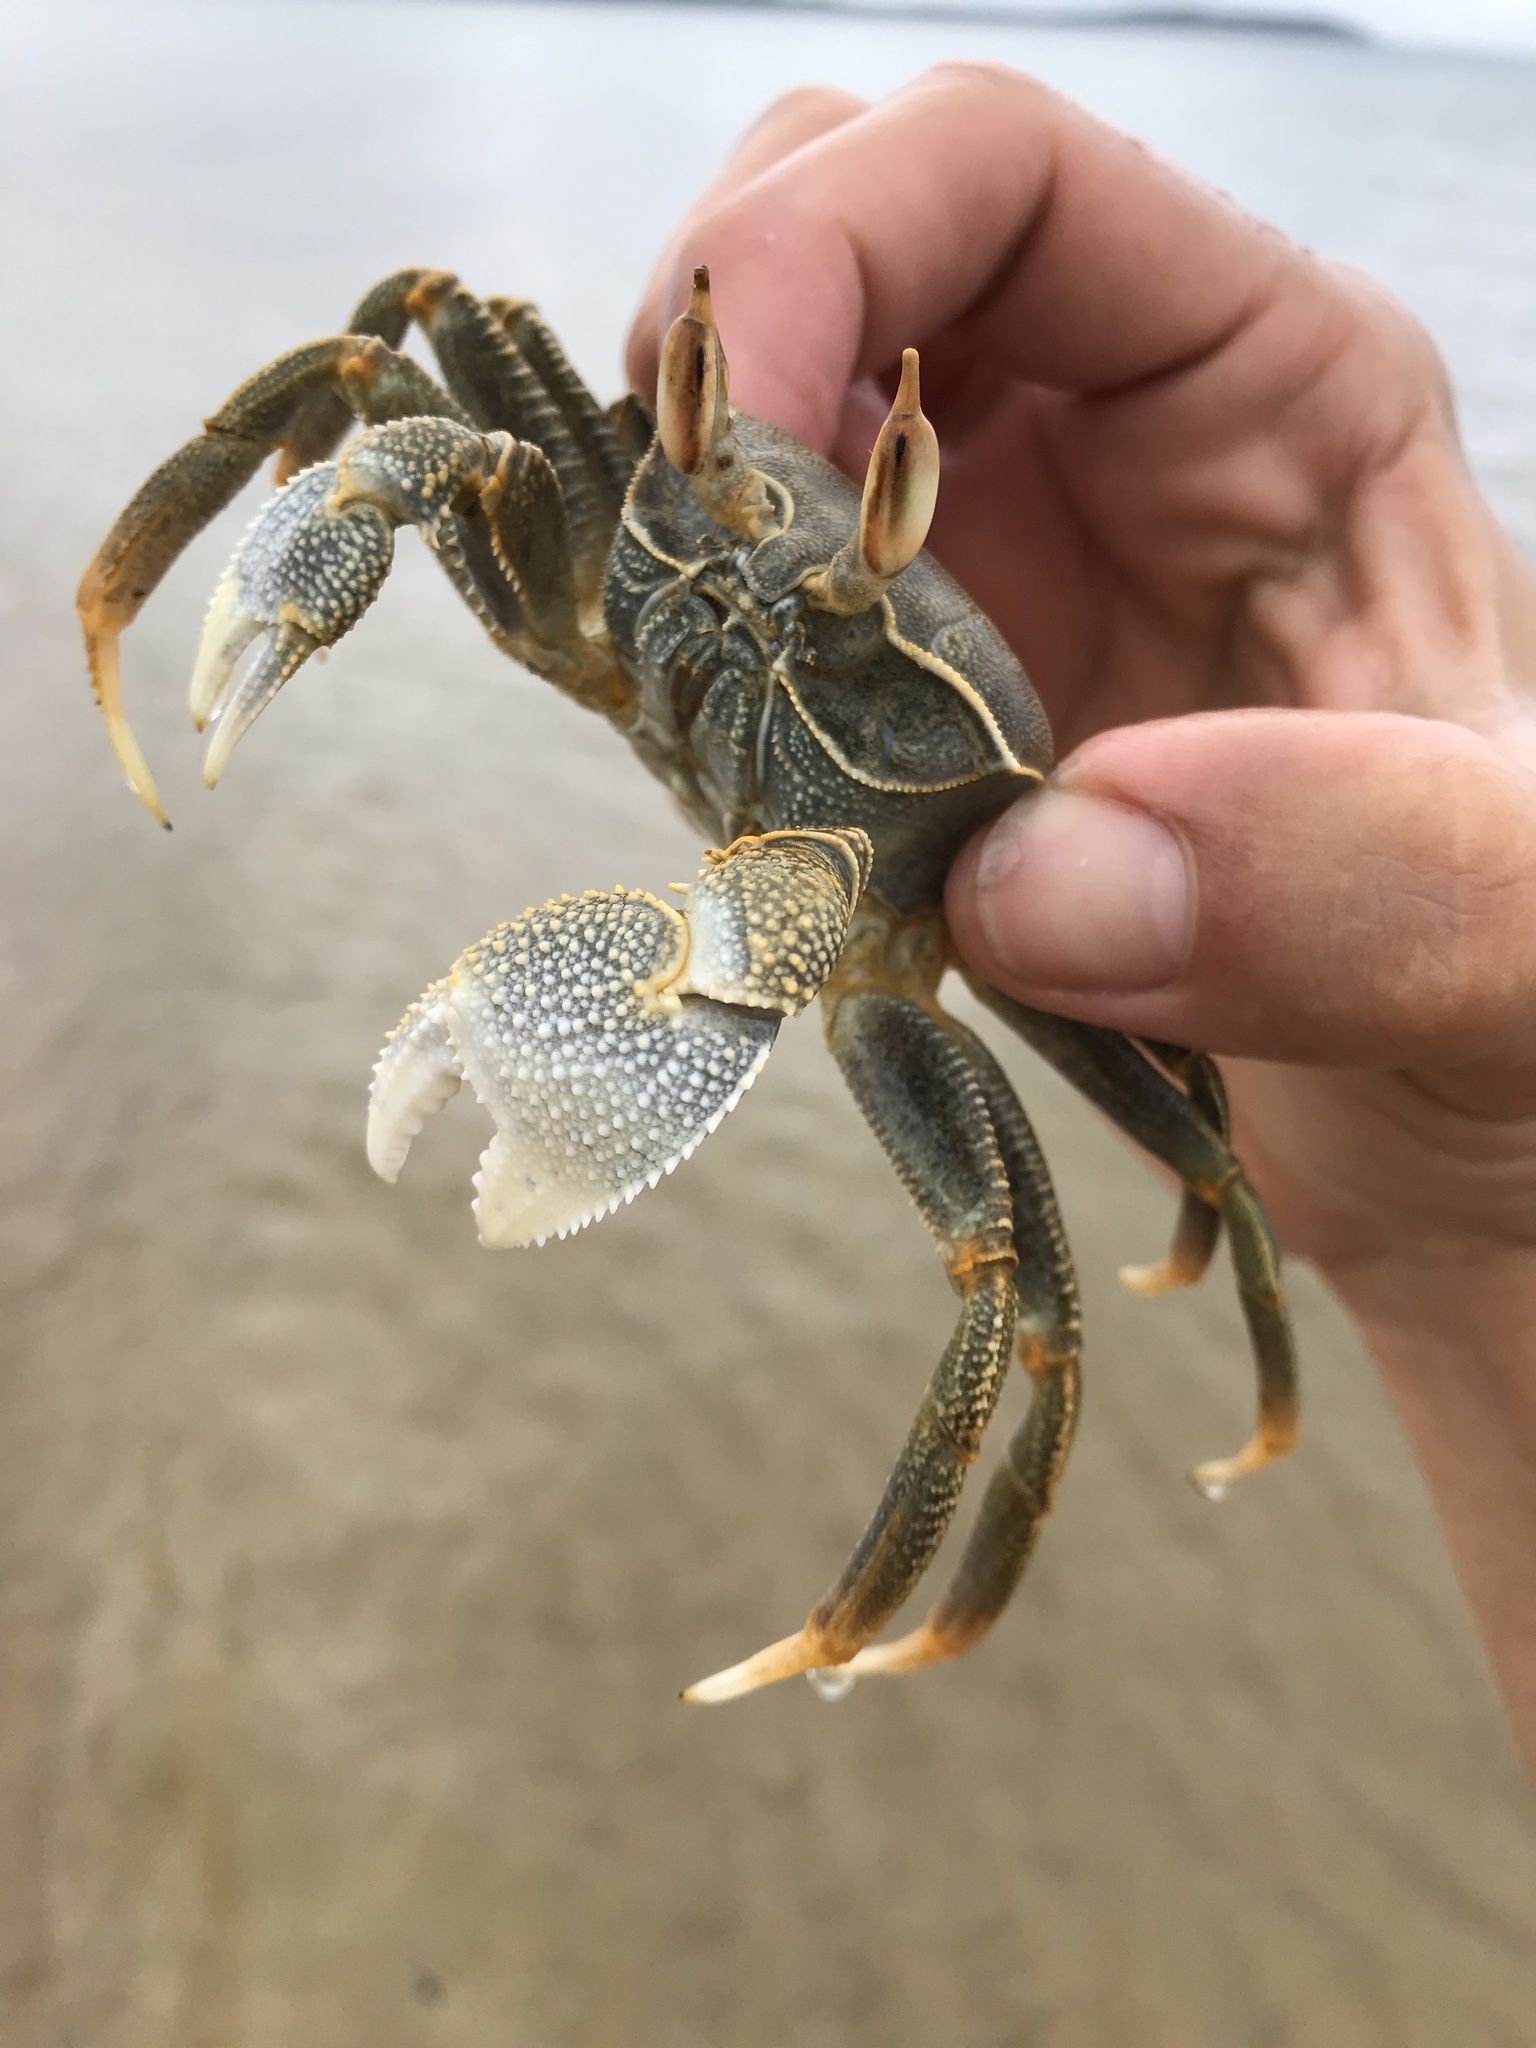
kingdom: Animalia
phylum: Arthropoda
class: Malacostraca
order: Decapoda
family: Ocypodidae
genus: Ocypode
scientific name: Ocypode ceratophthalmus
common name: Indo-pacific ghost crab
